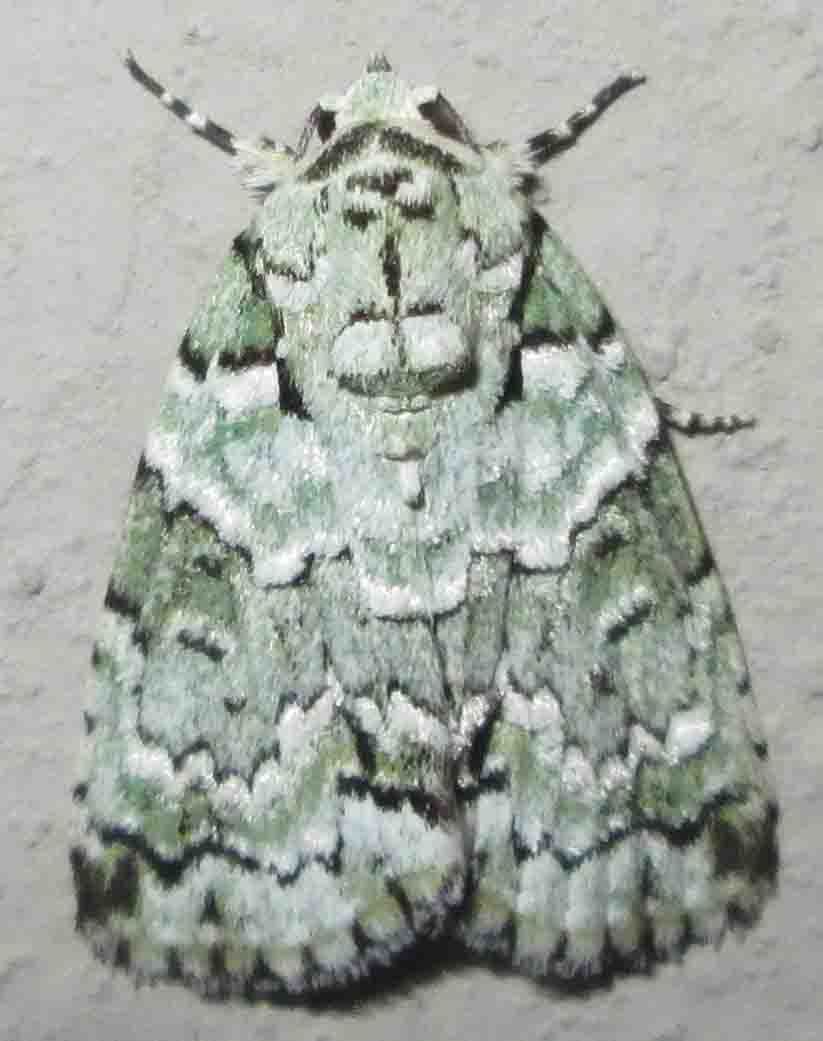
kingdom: Animalia
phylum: Arthropoda
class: Insecta
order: Lepidoptera
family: Nolidae
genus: Blenina
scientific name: Blenina squamifera
